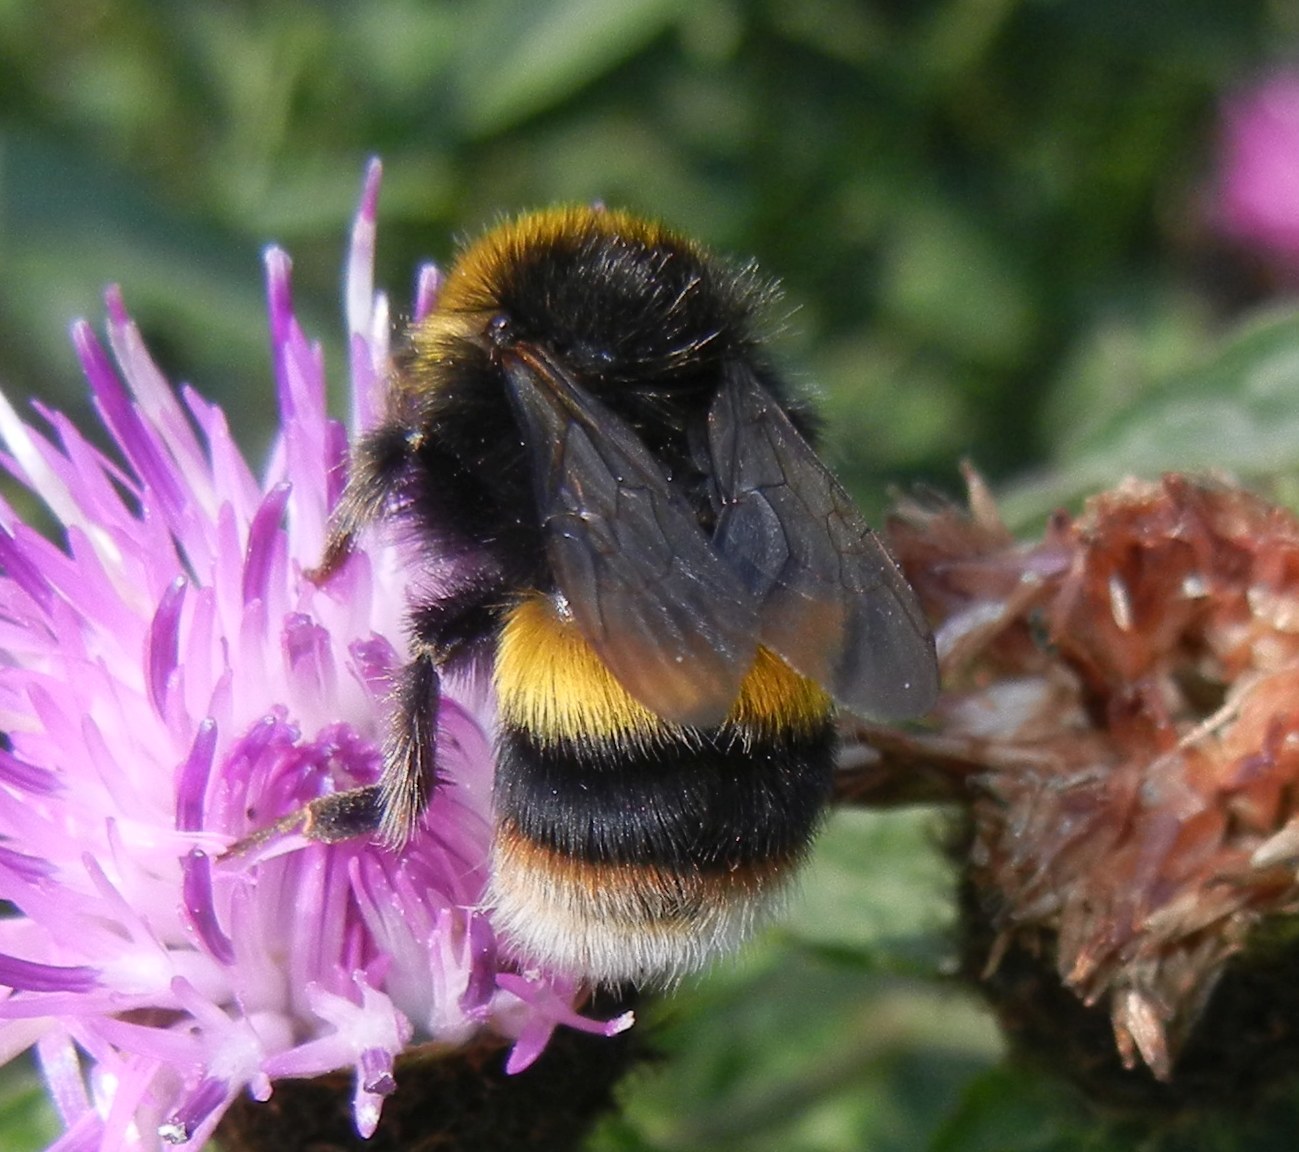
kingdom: Animalia
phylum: Arthropoda
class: Insecta
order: Hymenoptera
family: Apidae
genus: Bombus
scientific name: Bombus terrestris
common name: Buff-tailed bumblebee
